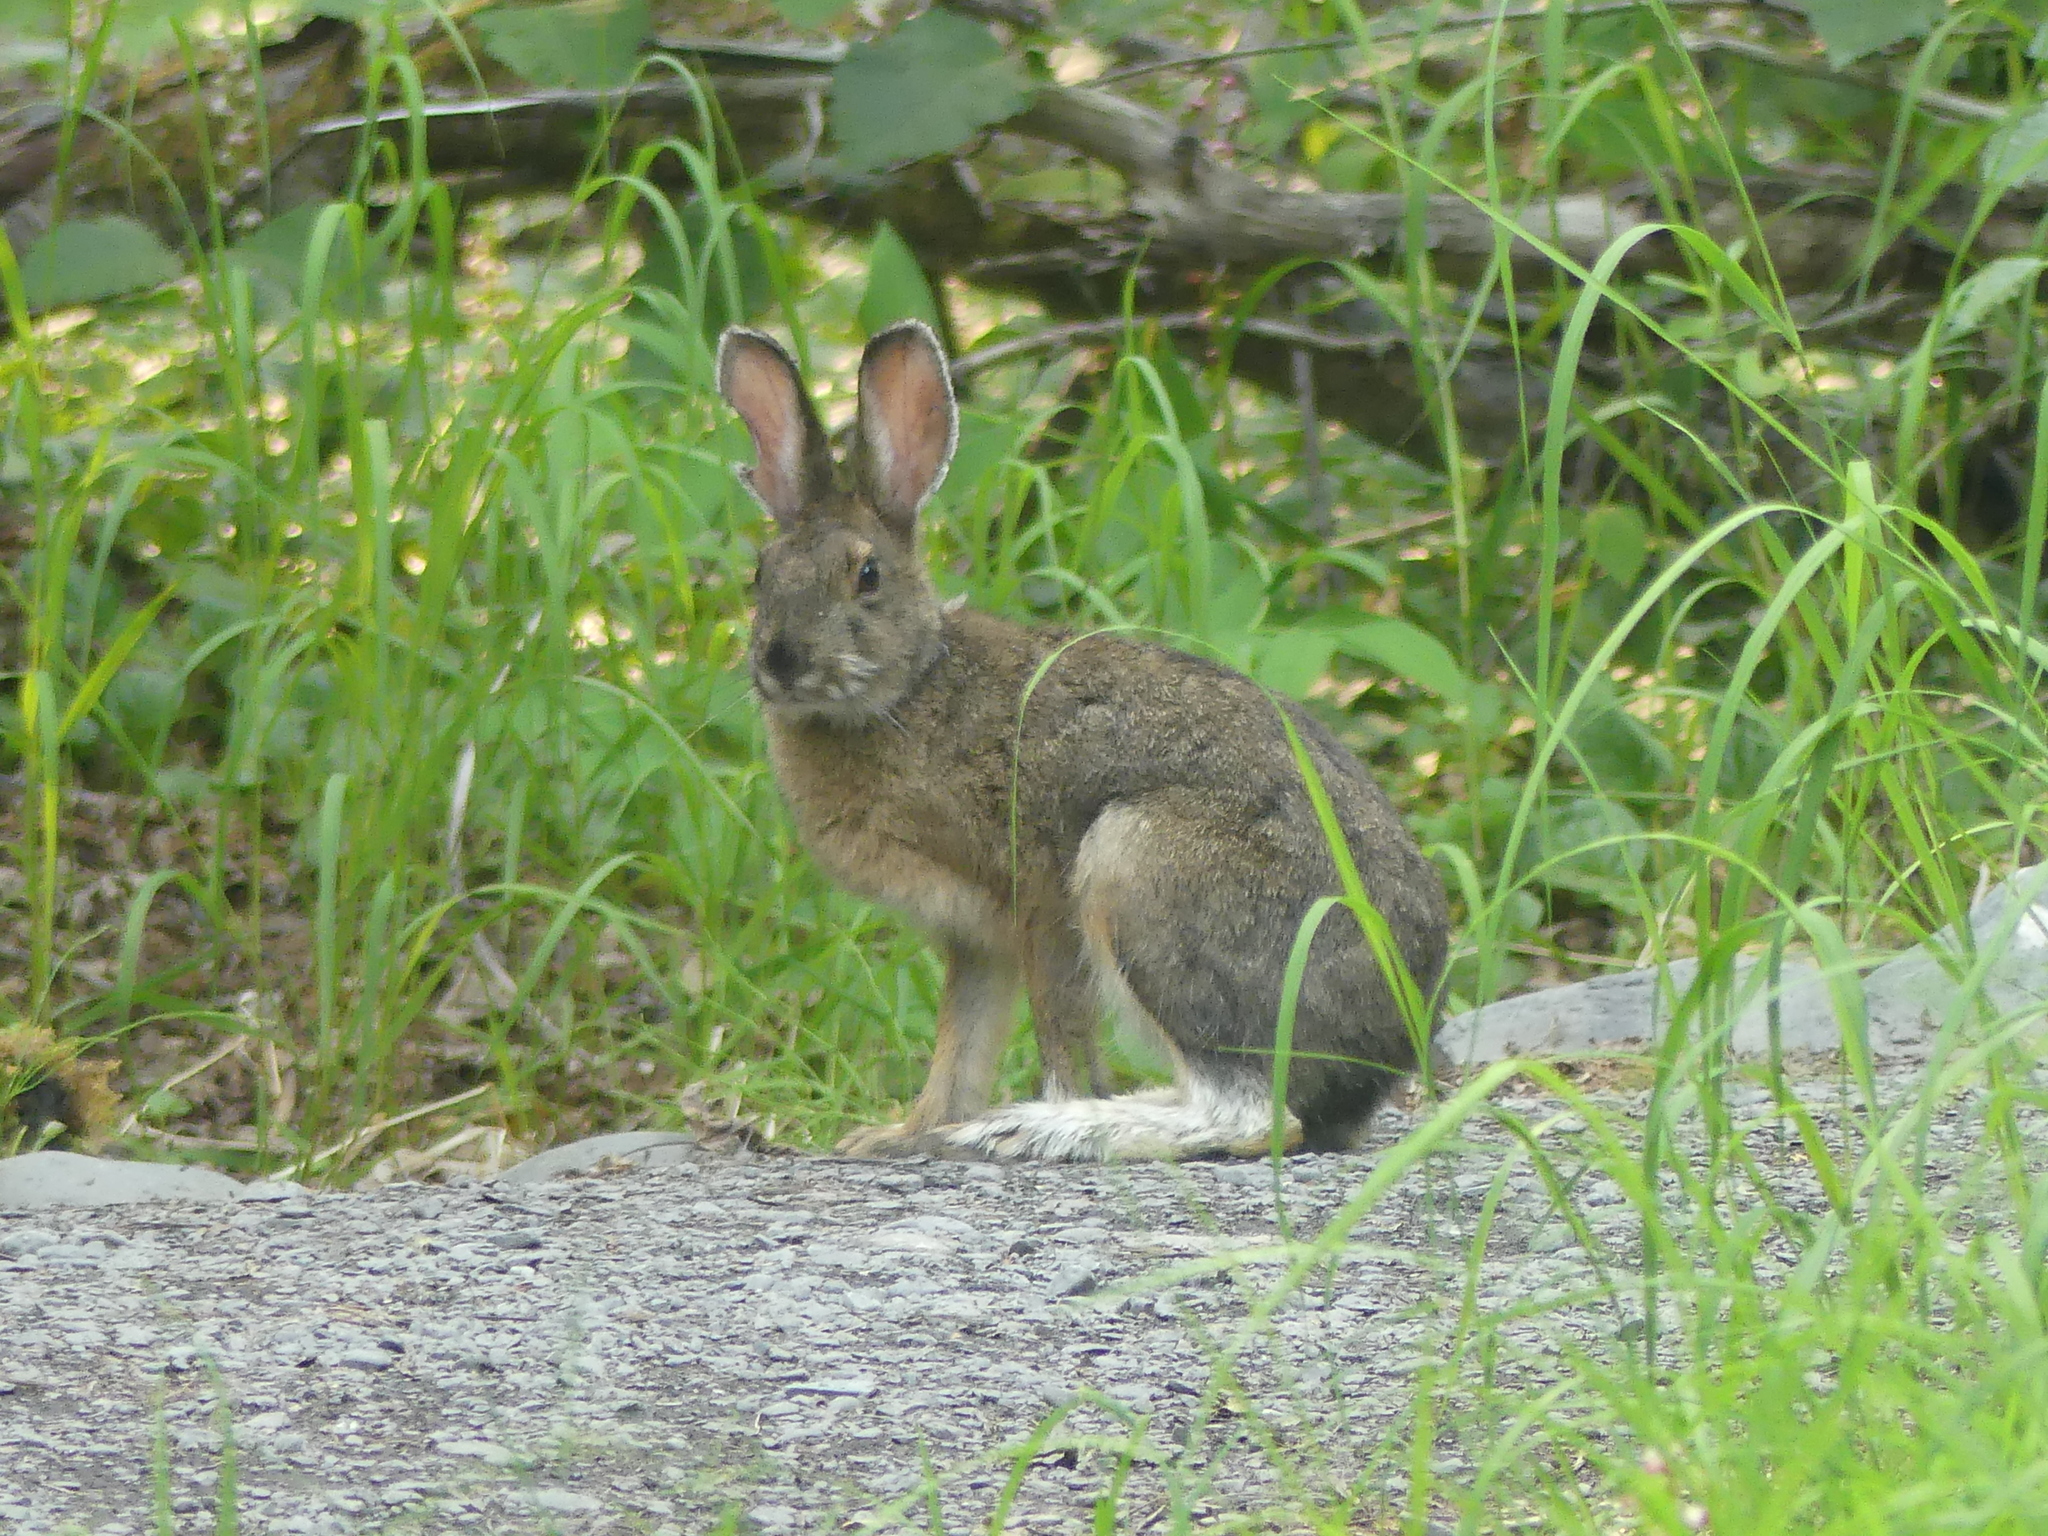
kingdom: Animalia
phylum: Chordata
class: Mammalia
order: Lagomorpha
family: Leporidae
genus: Lepus
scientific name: Lepus americanus
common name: Snowshoe hare
